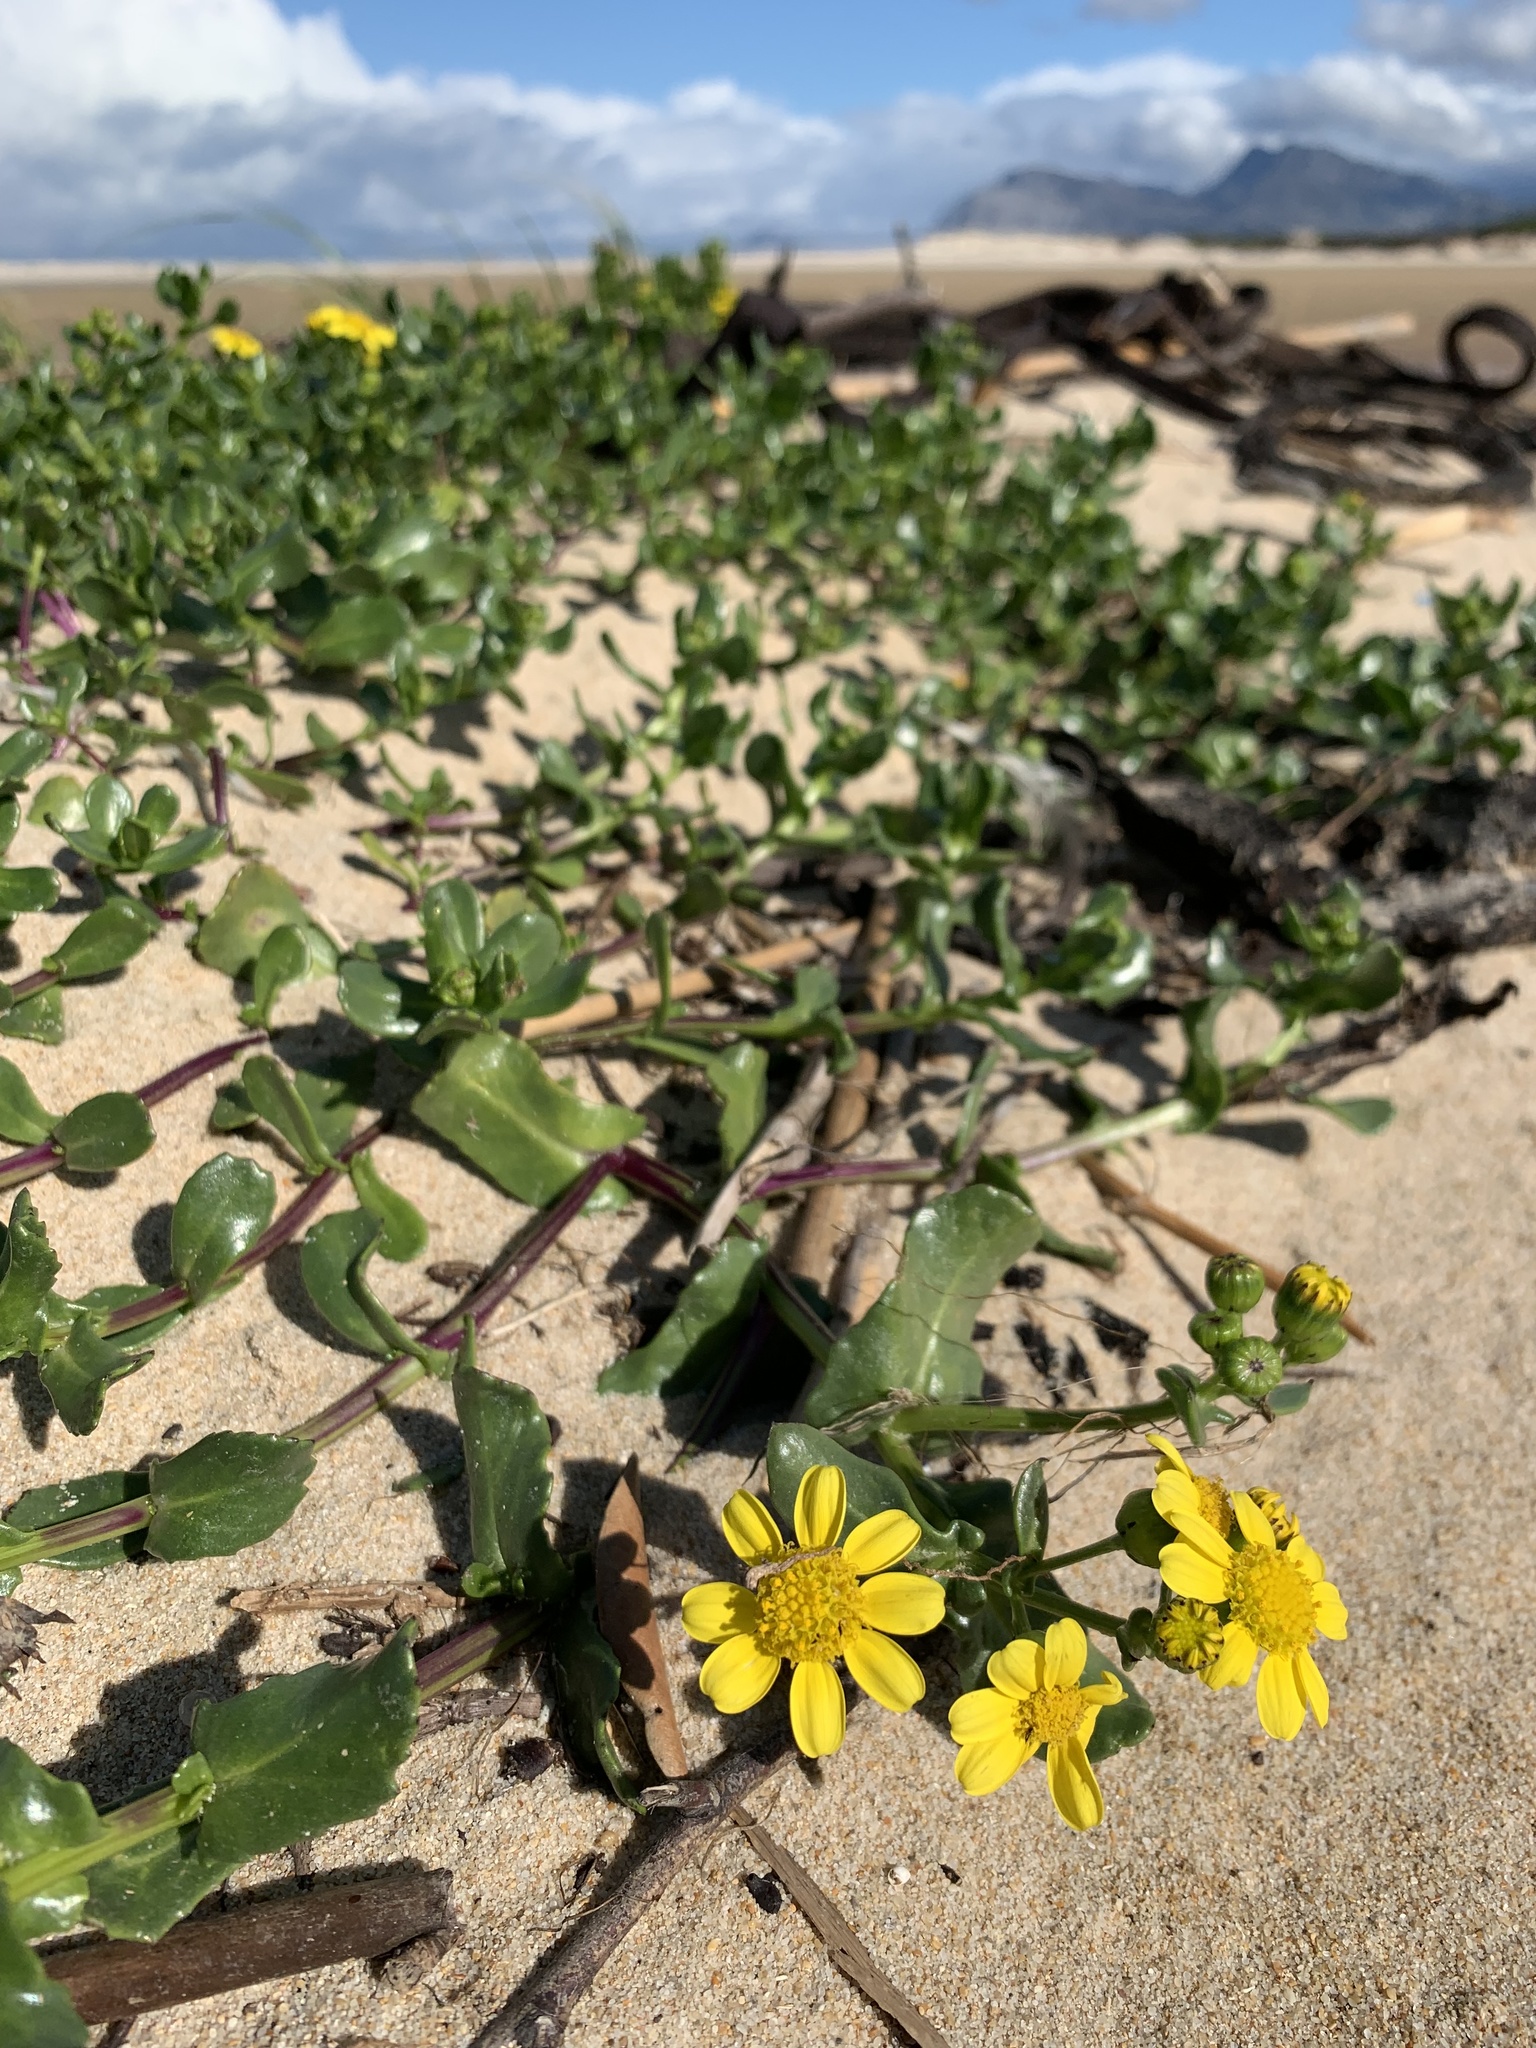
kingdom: Plantae
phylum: Tracheophyta
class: Magnoliopsida
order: Asterales
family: Asteraceae
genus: Senecio
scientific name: Senecio maritimus
